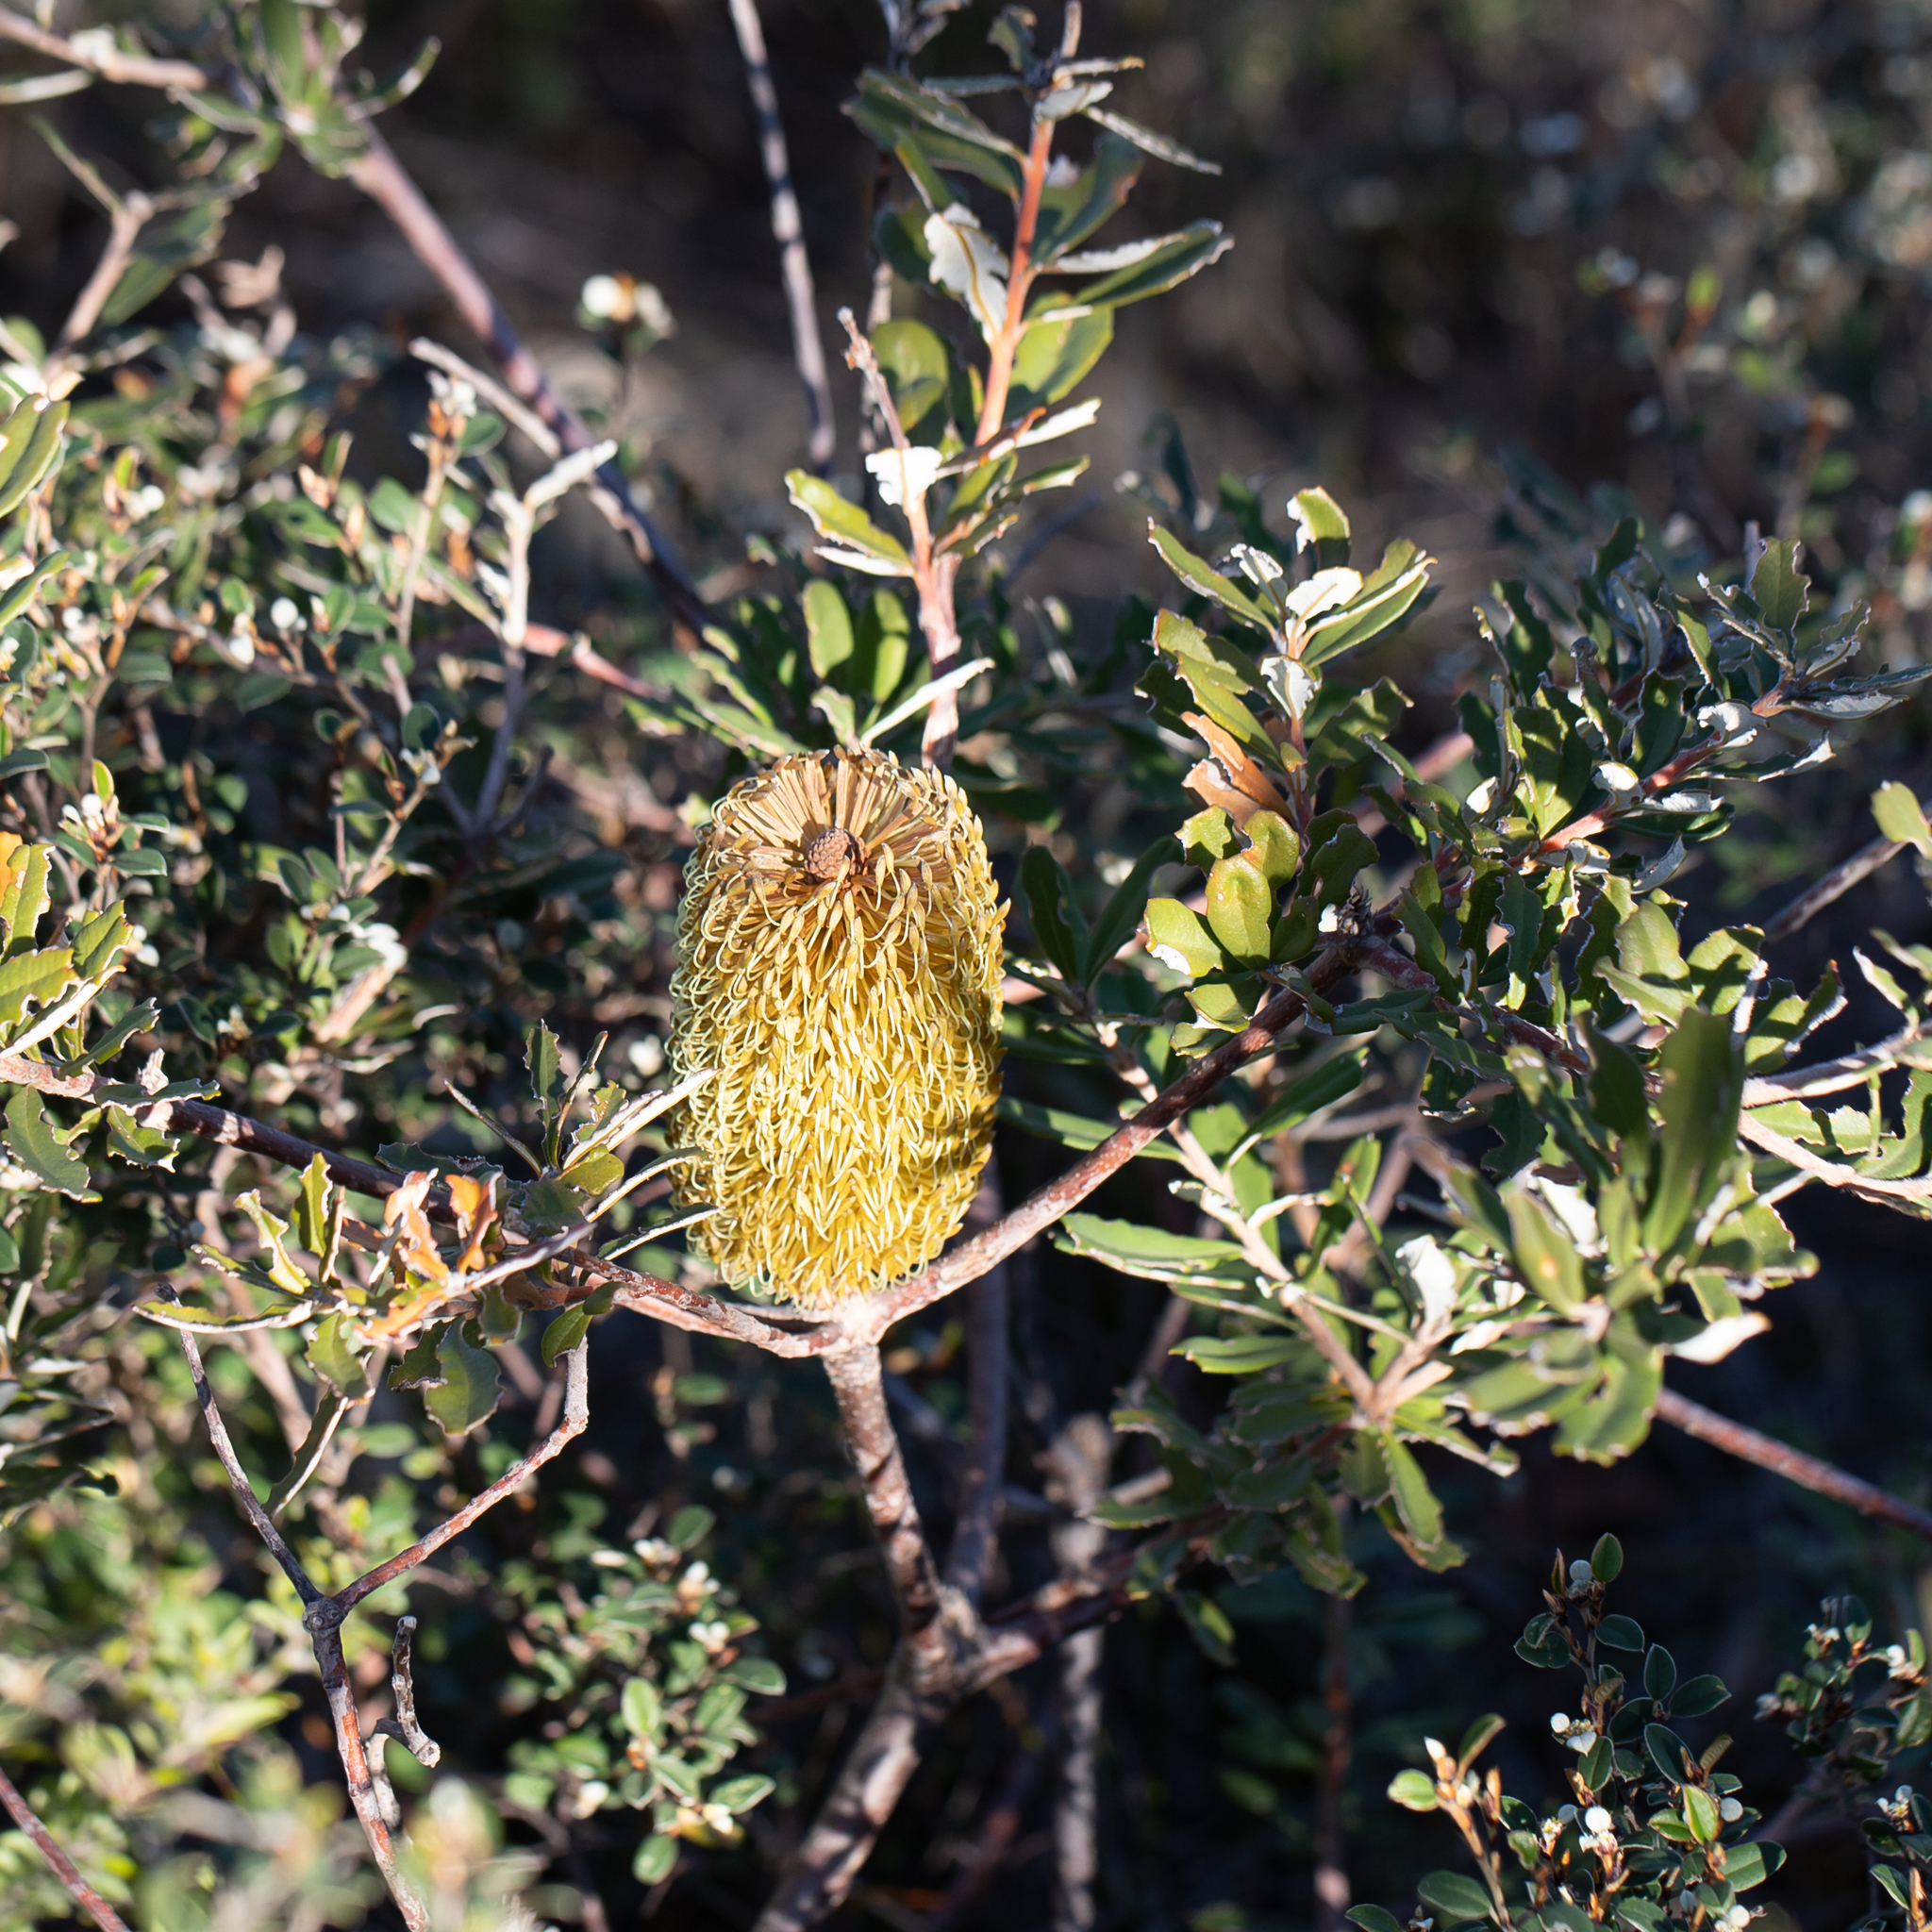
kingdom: Plantae
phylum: Tracheophyta
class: Magnoliopsida
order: Proteales
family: Proteaceae
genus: Banksia
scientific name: Banksia marginata
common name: Silver banksia
